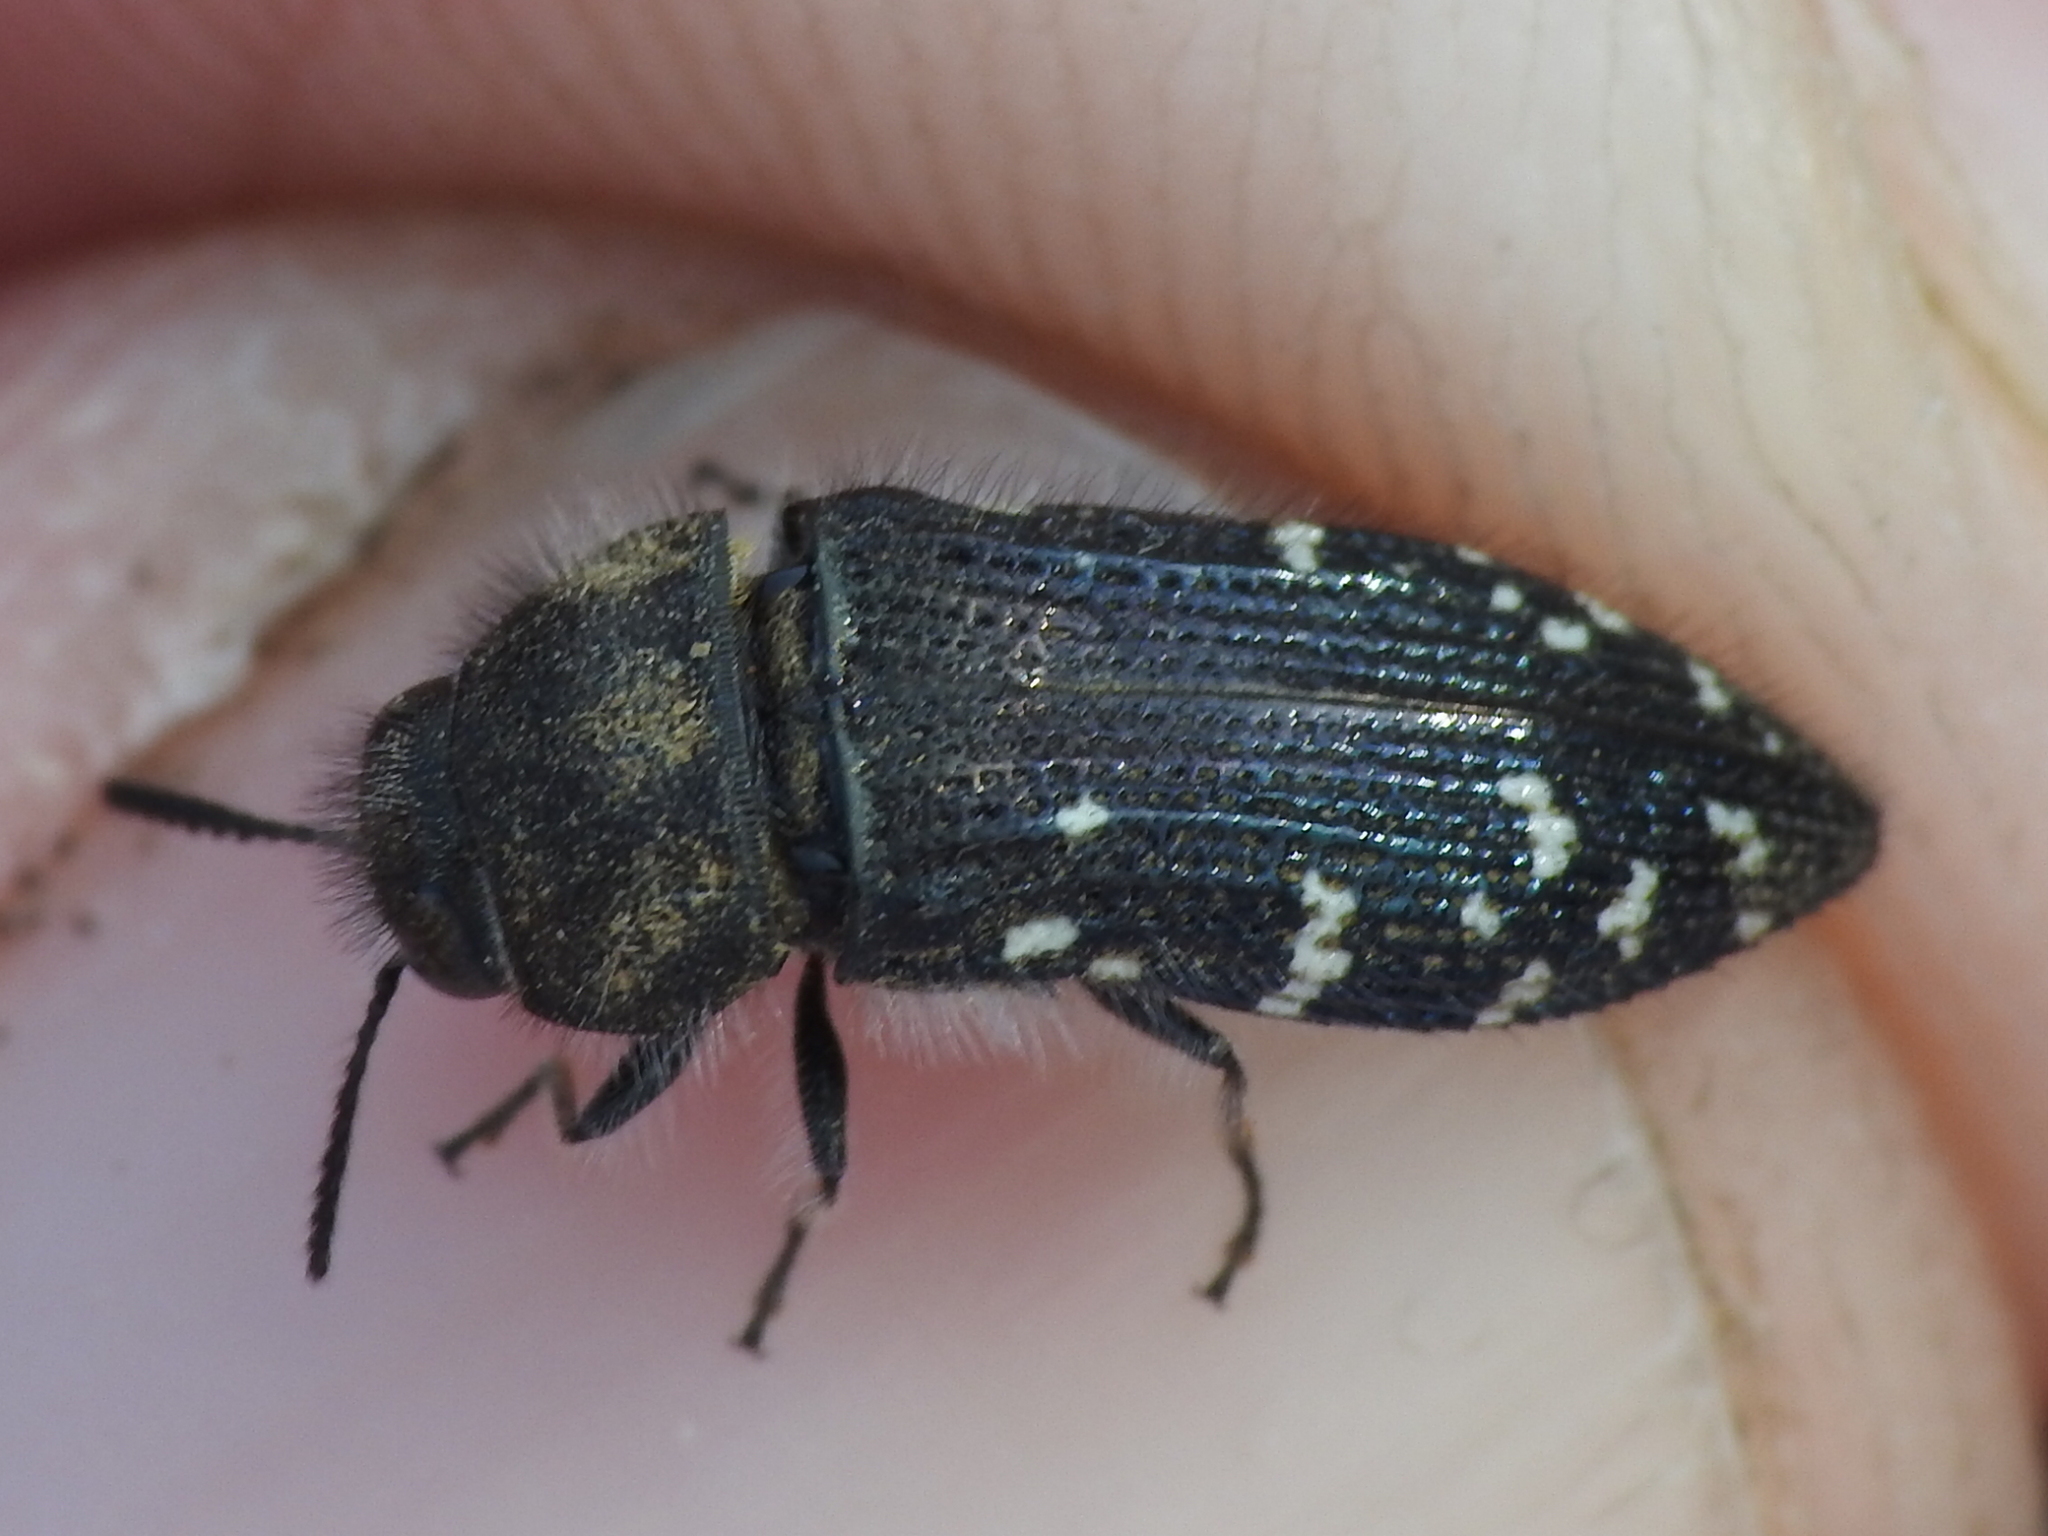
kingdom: Animalia
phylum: Arthropoda
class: Insecta
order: Coleoptera
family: Buprestidae
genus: Acmaeodera
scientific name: Acmaeodera ornatoides
